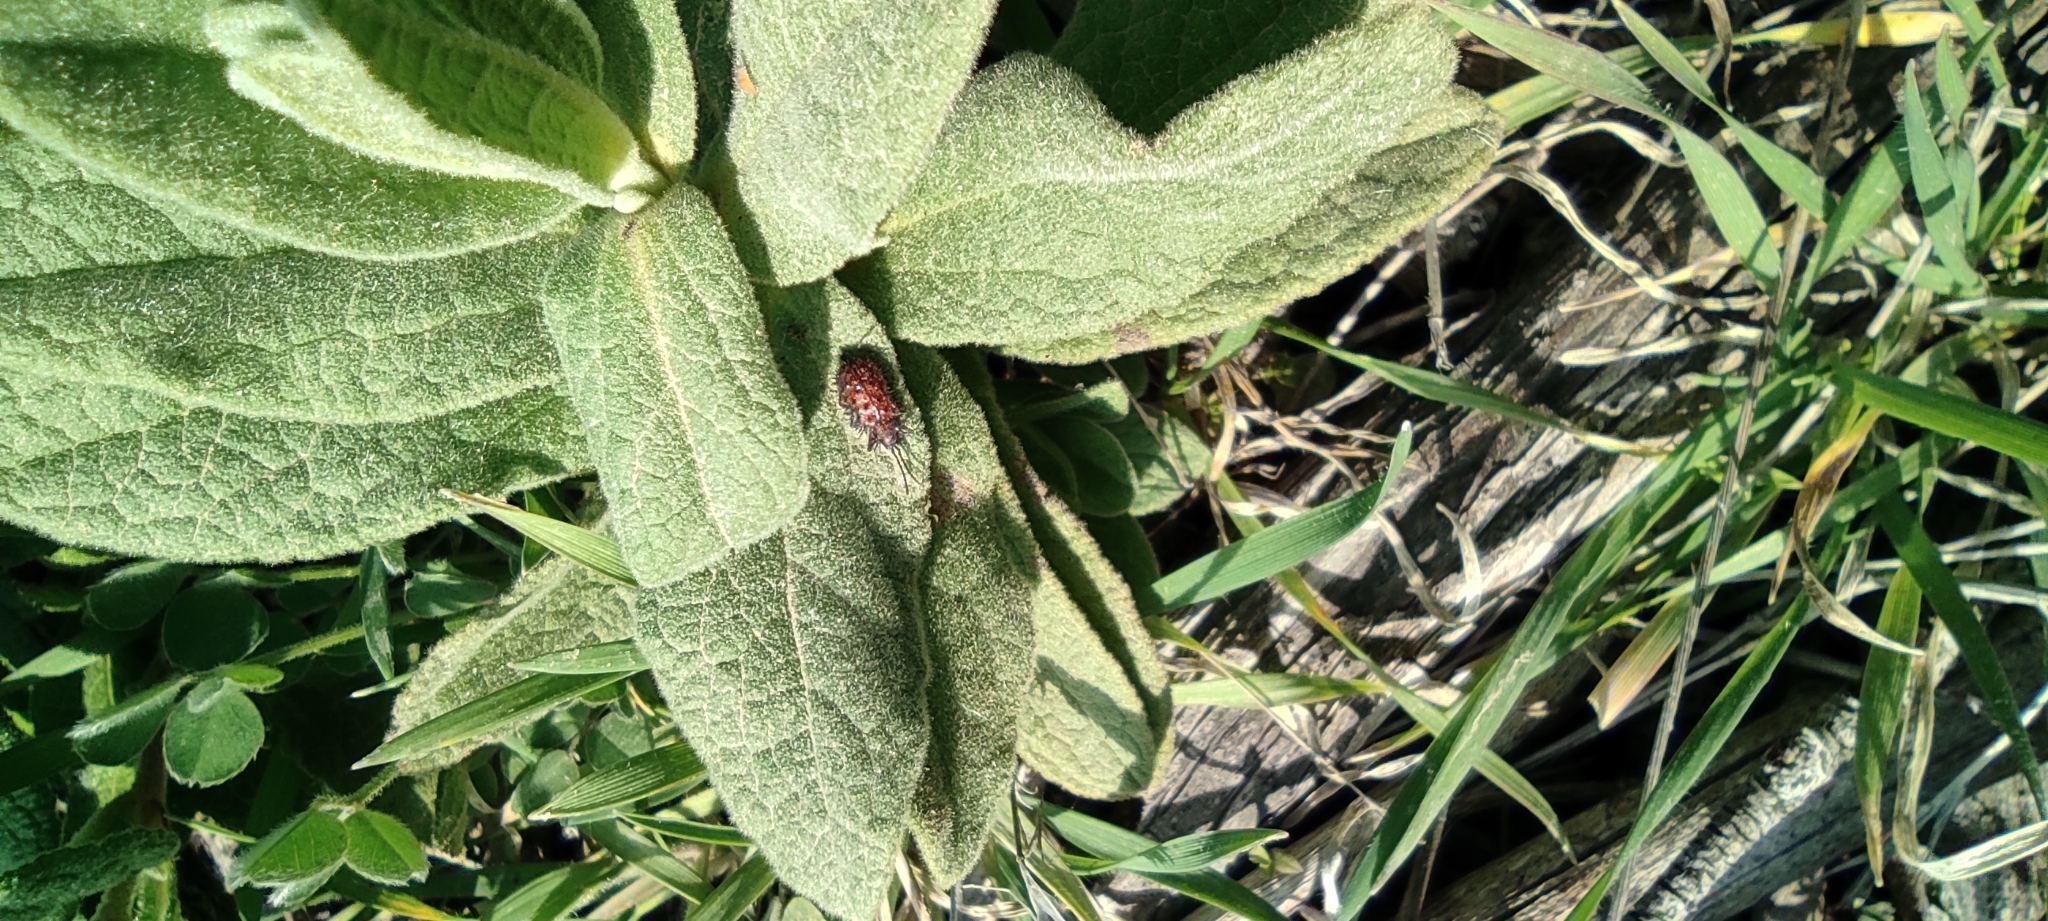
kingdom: Animalia
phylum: Arthropoda
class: Insecta
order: Coleoptera
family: Chrysomelidae
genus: Dicladispa
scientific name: Dicladispa testacea
